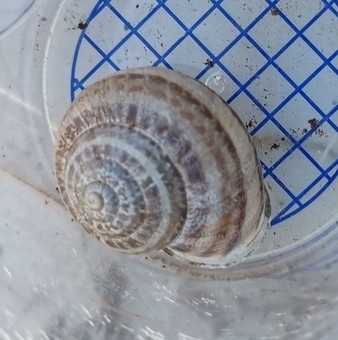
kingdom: Animalia
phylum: Mollusca
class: Gastropoda
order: Stylommatophora
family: Helicidae
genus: Eobania
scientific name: Eobania vermiculata
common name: Chocolateband snail
